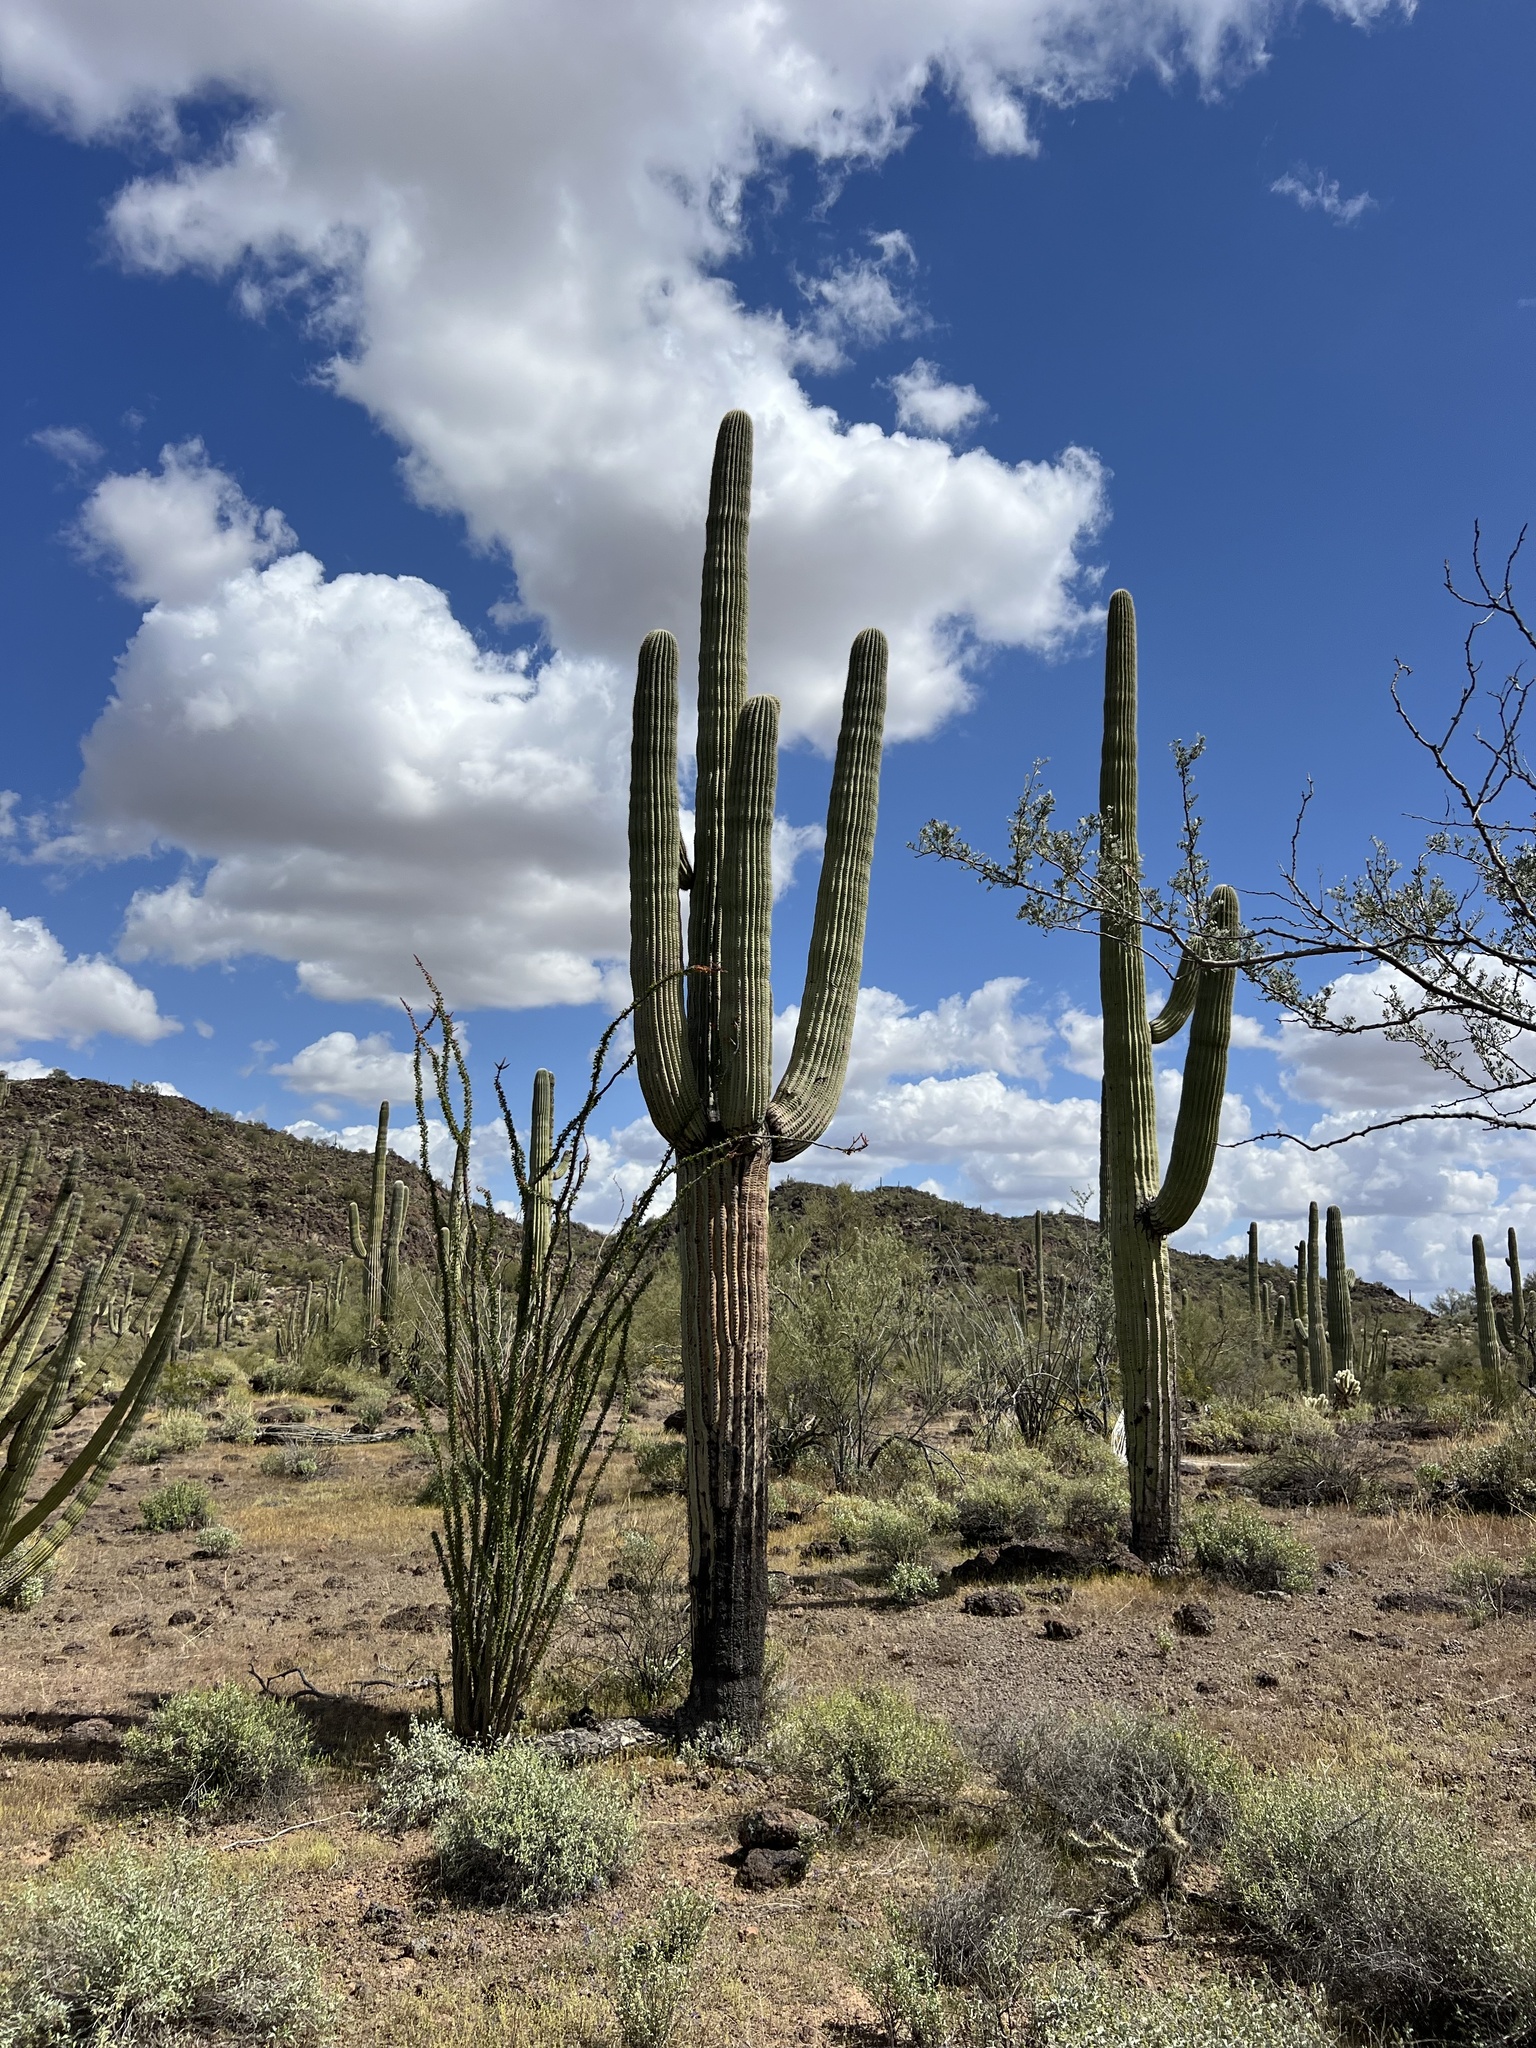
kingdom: Plantae
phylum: Tracheophyta
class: Magnoliopsida
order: Caryophyllales
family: Cactaceae
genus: Carnegiea
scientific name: Carnegiea gigantea
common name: Saguaro
